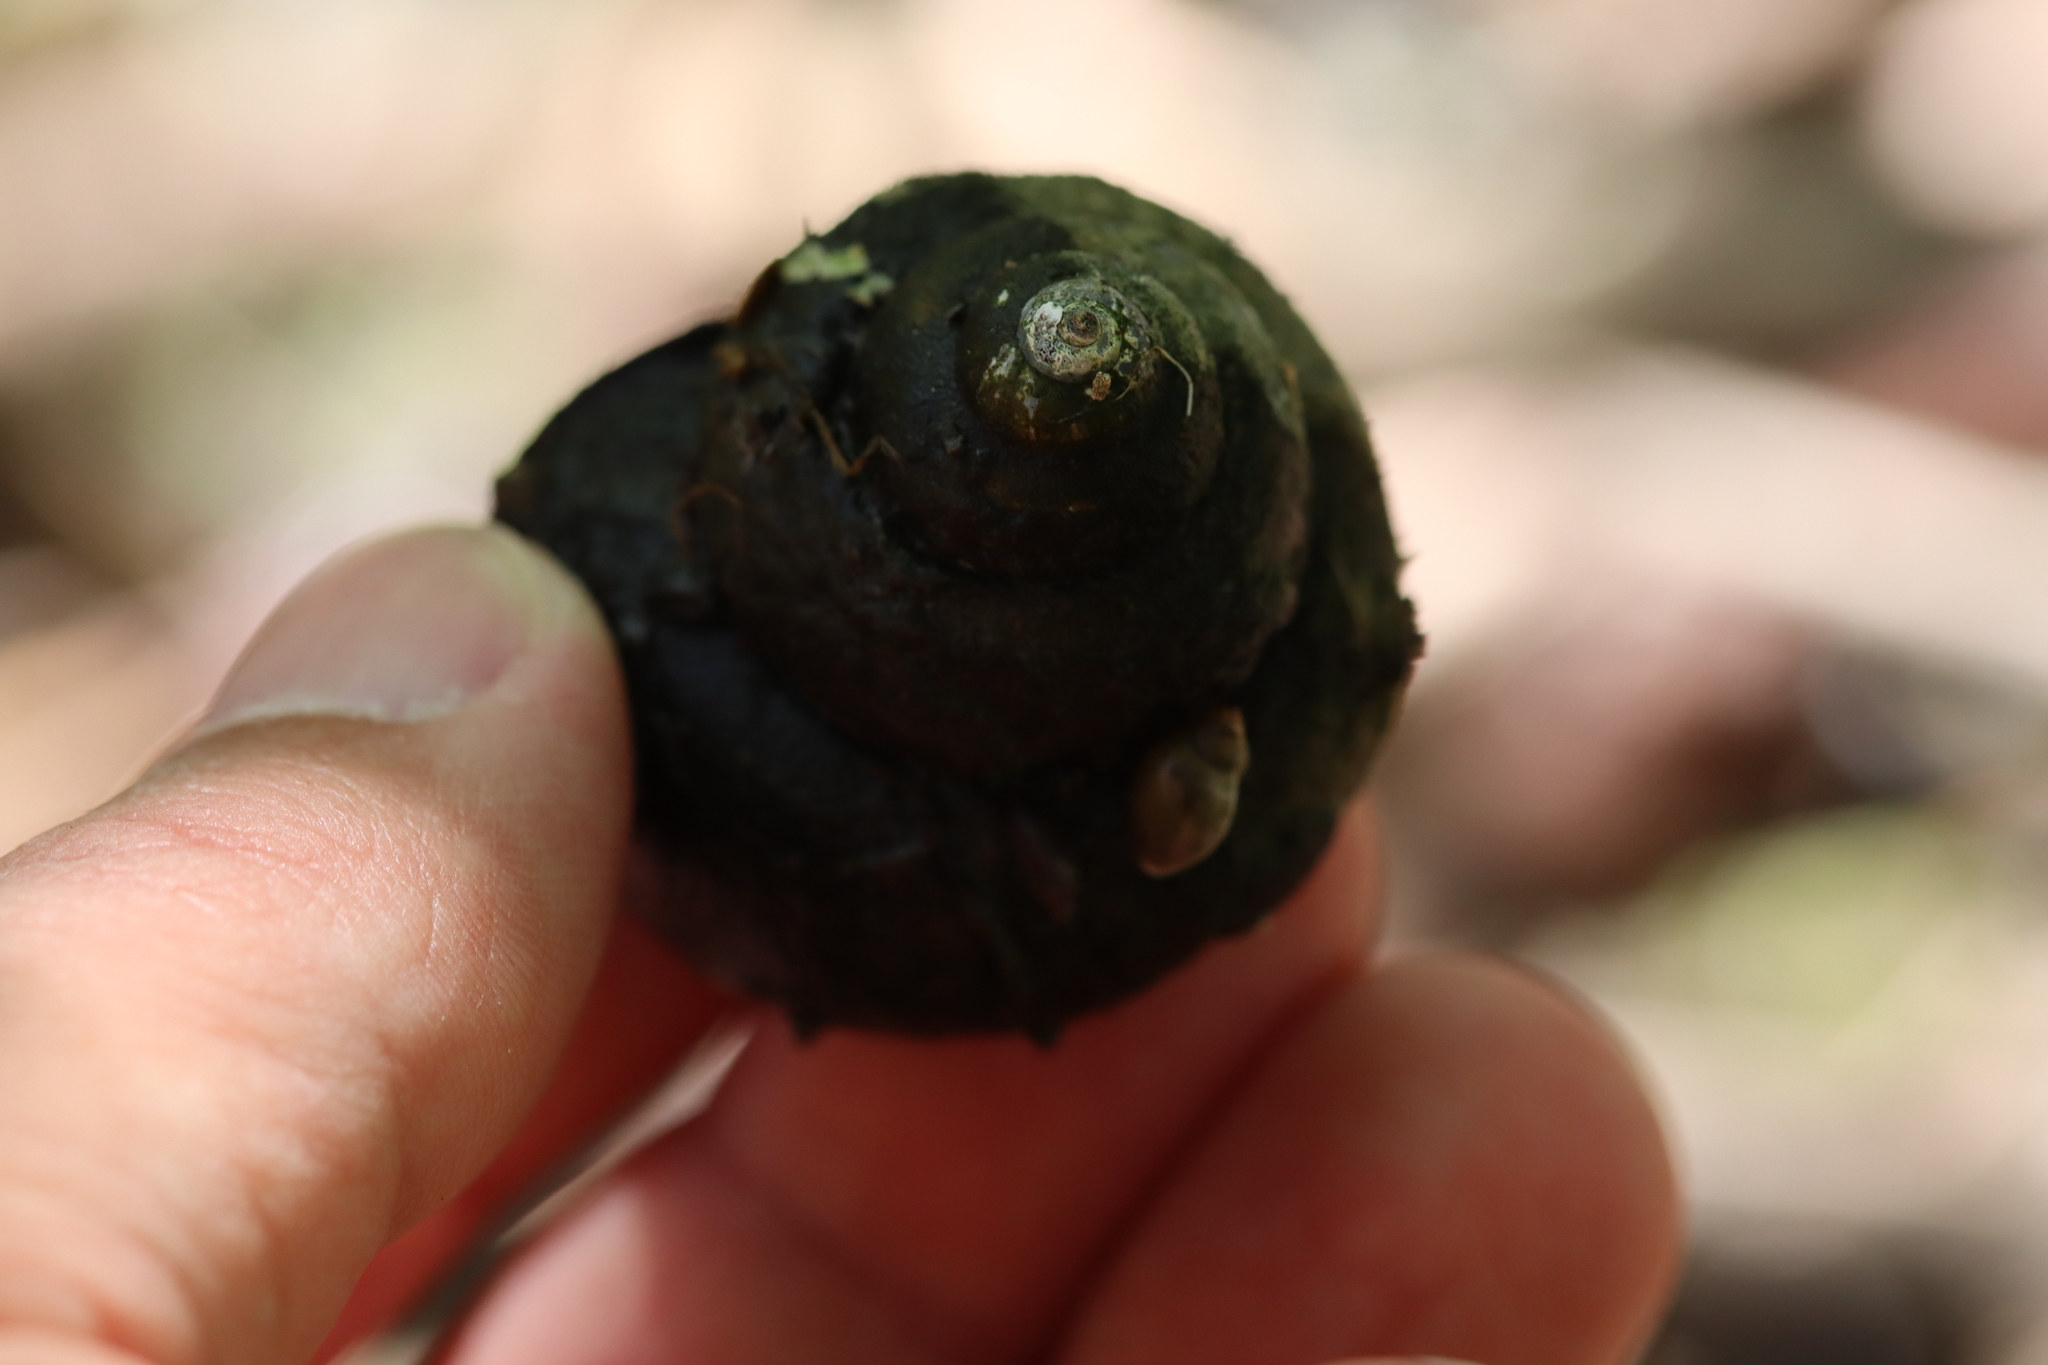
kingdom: Animalia
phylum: Mollusca
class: Gastropoda
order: Architaenioglossa
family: Viviparidae
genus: Cipangopaludina
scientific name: Cipangopaludina chinensis
